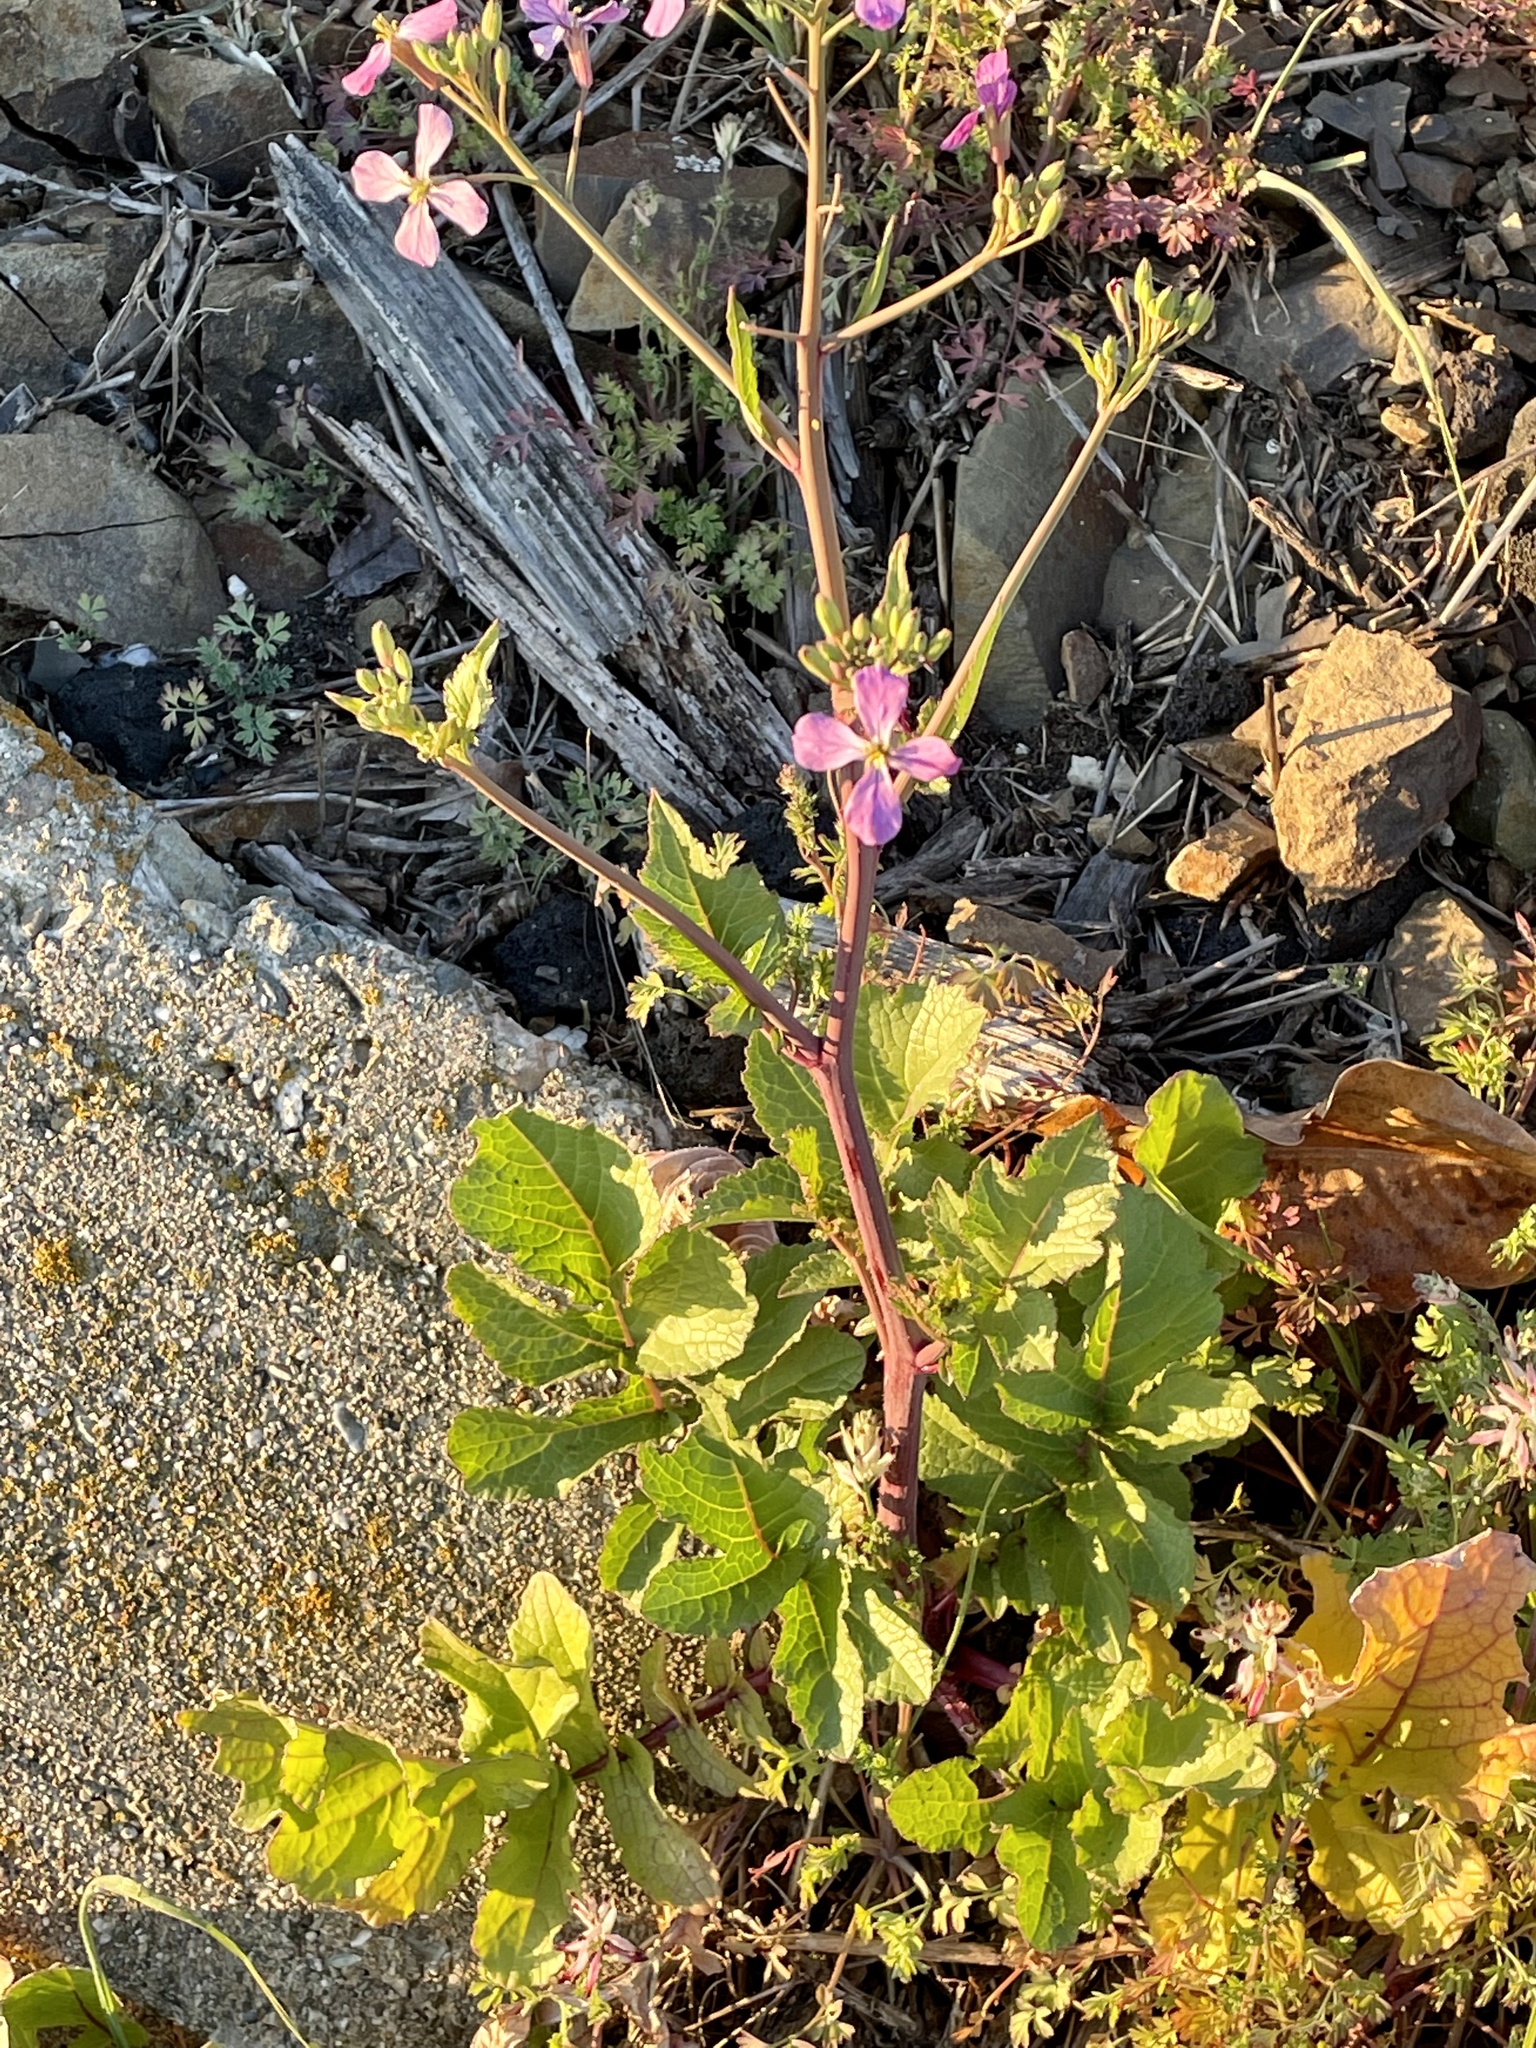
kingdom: Plantae
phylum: Tracheophyta
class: Magnoliopsida
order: Brassicales
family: Brassicaceae
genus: Raphanus
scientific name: Raphanus sativus
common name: Cultivated radish
